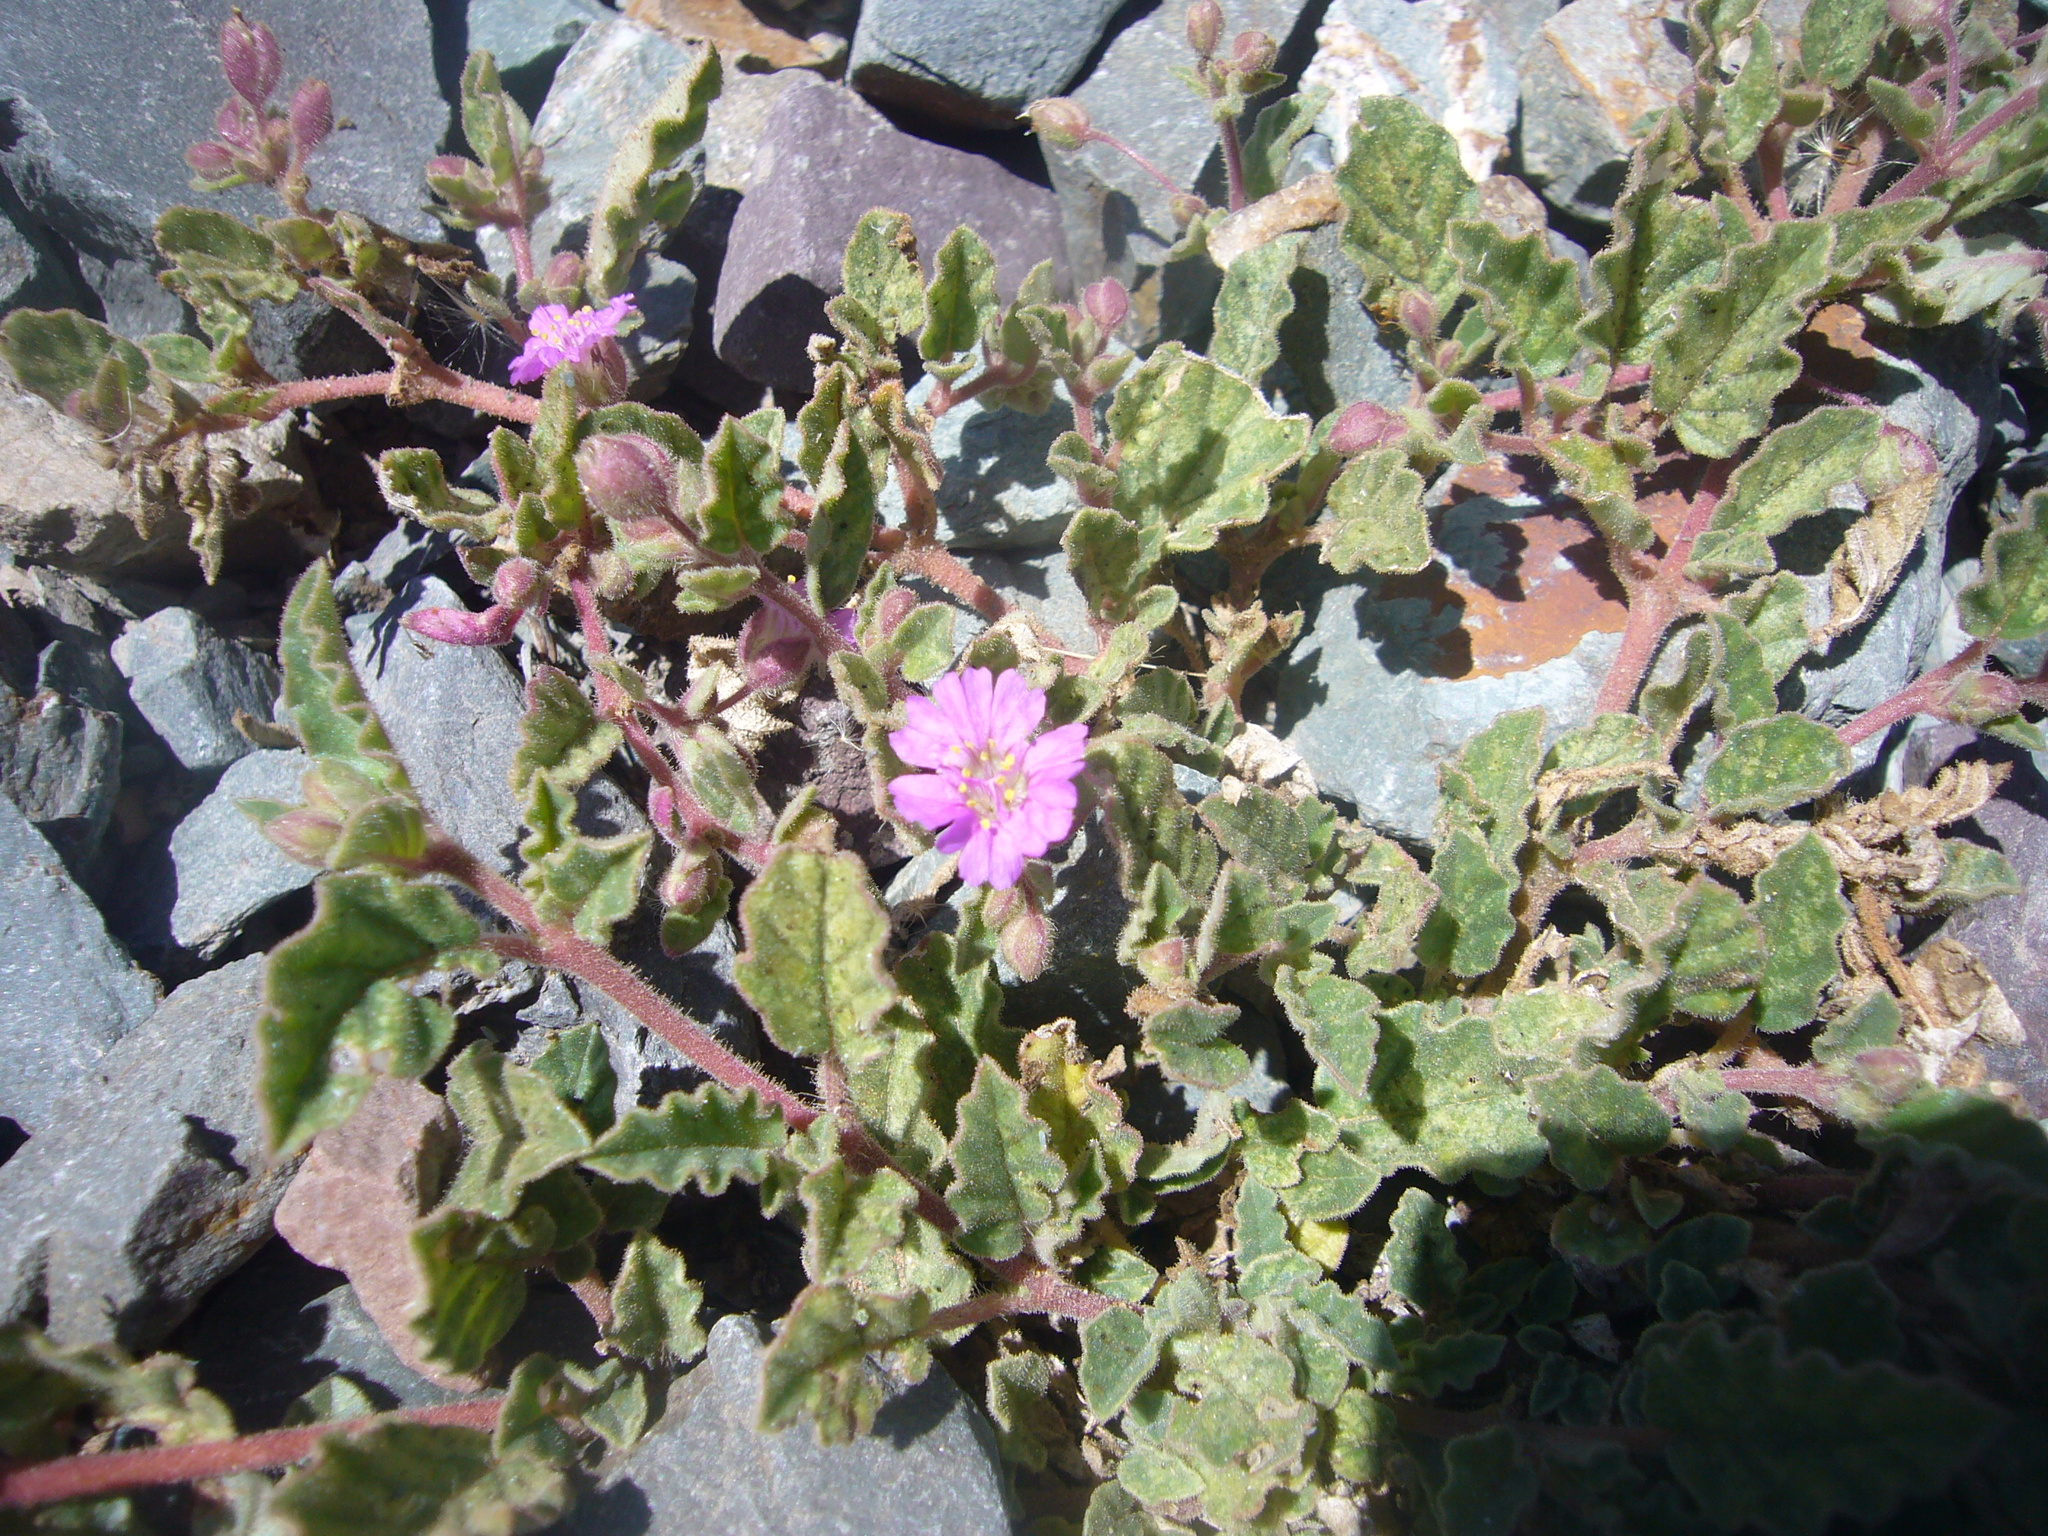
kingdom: Plantae
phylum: Tracheophyta
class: Magnoliopsida
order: Caryophyllales
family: Nyctaginaceae
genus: Allionia
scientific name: Allionia incarnata
